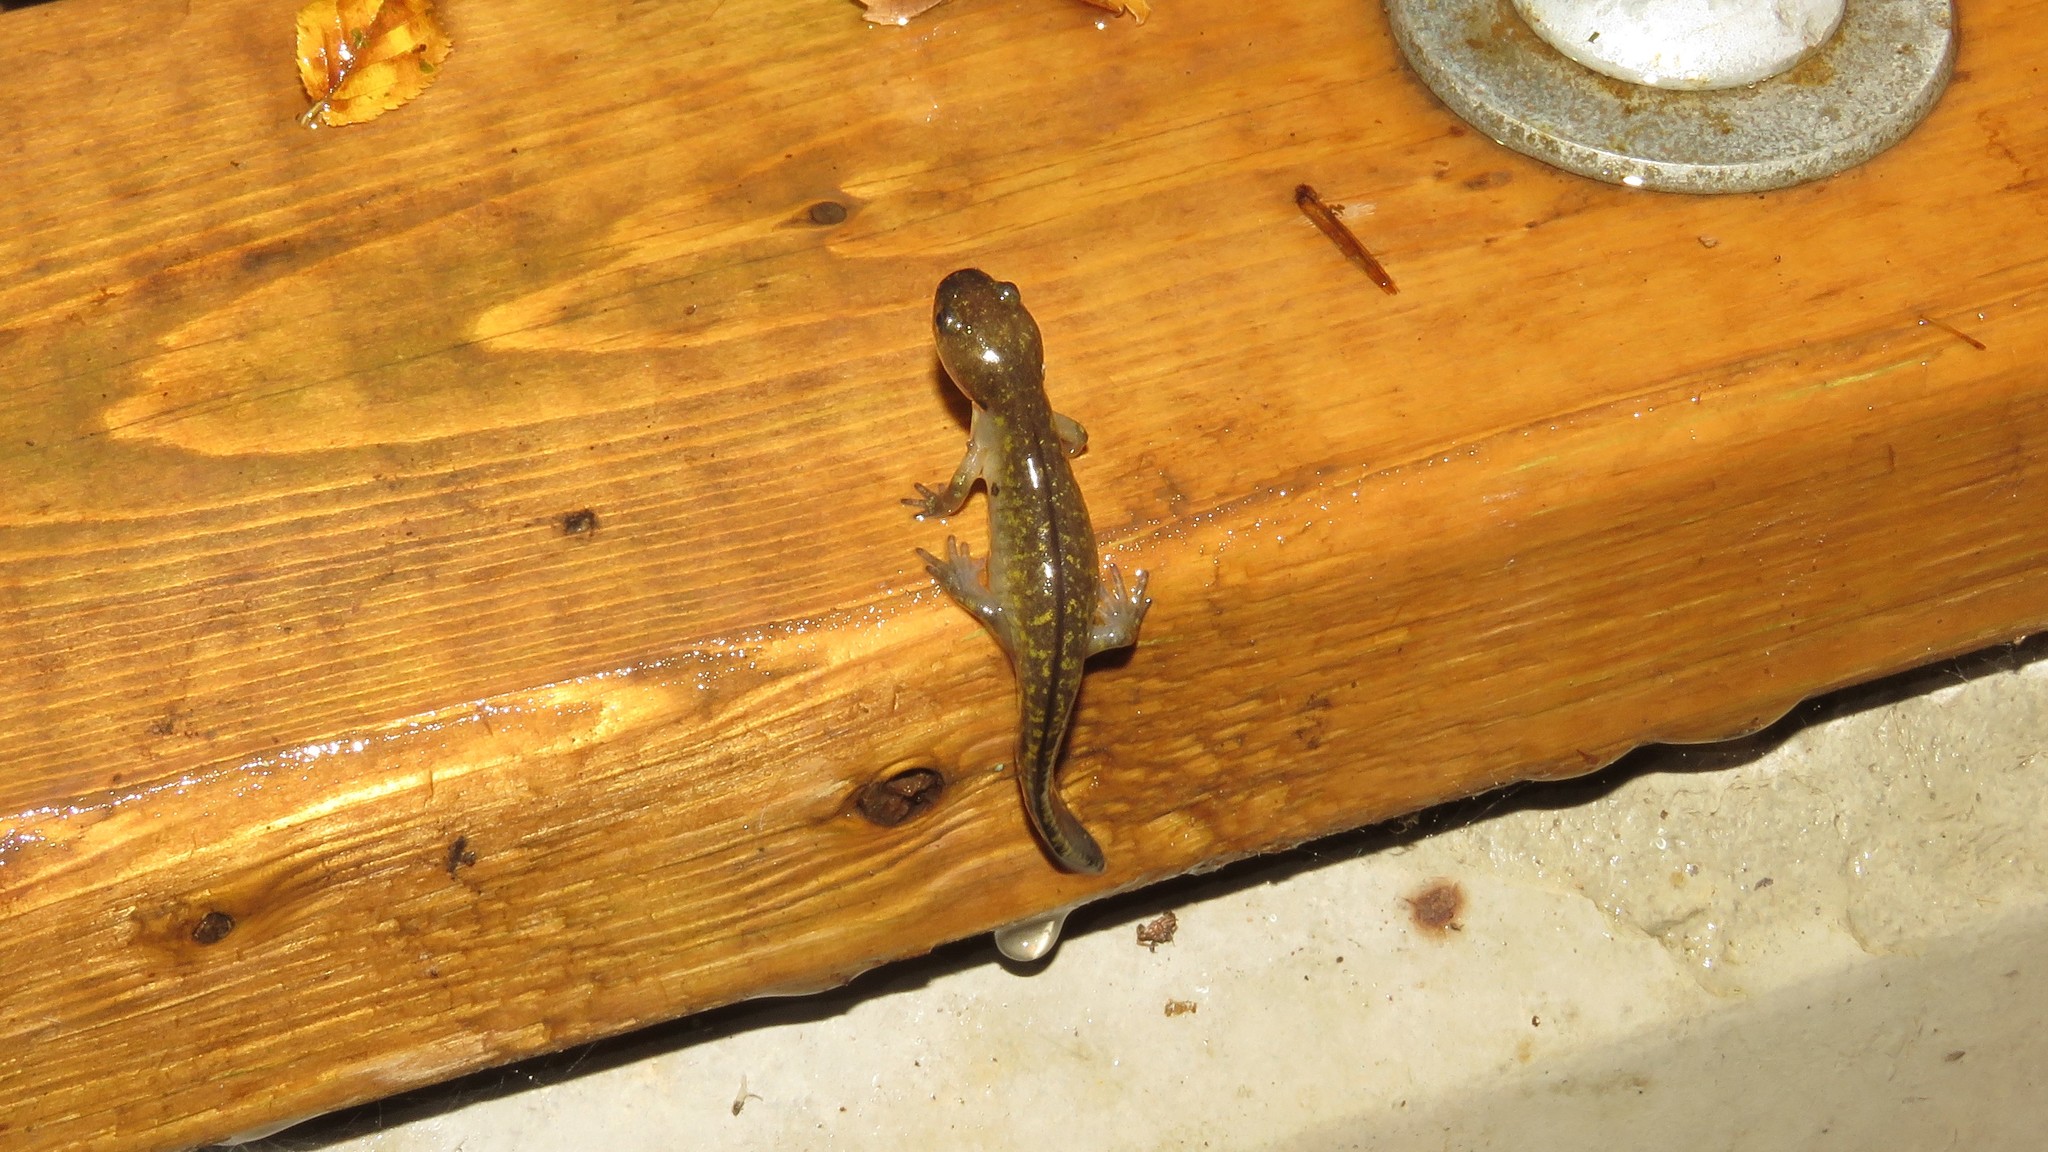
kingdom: Animalia
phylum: Chordata
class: Amphibia
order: Caudata
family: Ambystomatidae
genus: Ambystoma
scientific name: Ambystoma maculatum
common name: Spotted salamander
